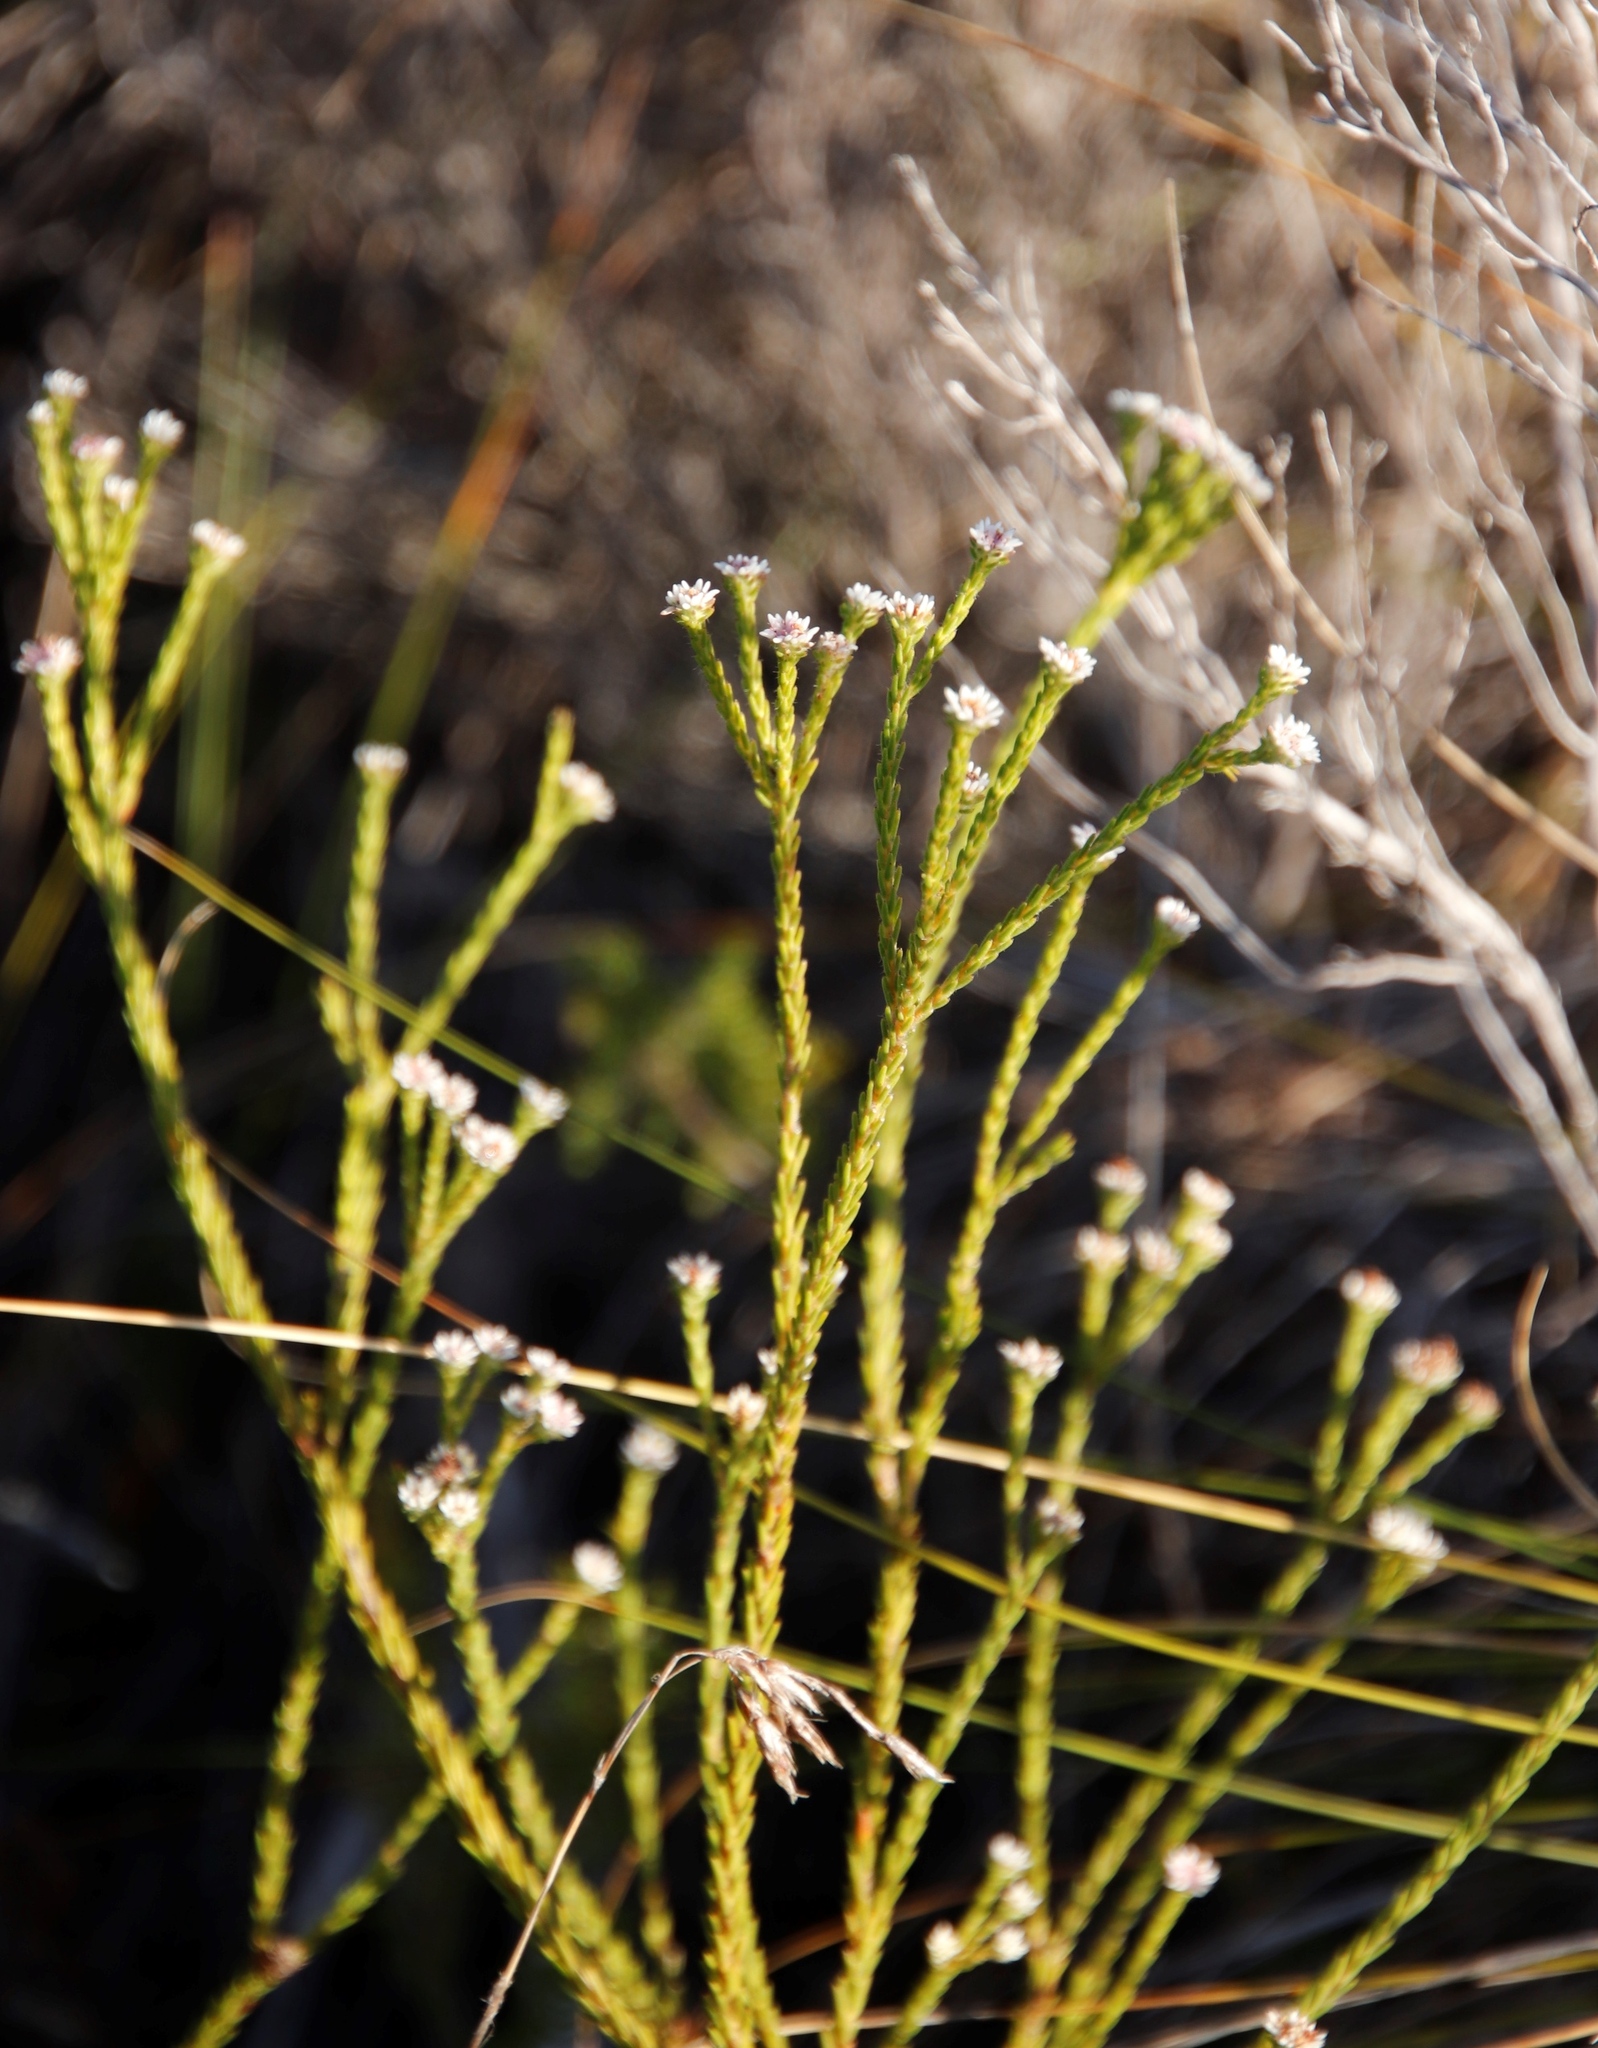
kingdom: Plantae
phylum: Tracheophyta
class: Magnoliopsida
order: Bruniales
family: Bruniaceae
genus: Staavia
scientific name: Staavia radiata
